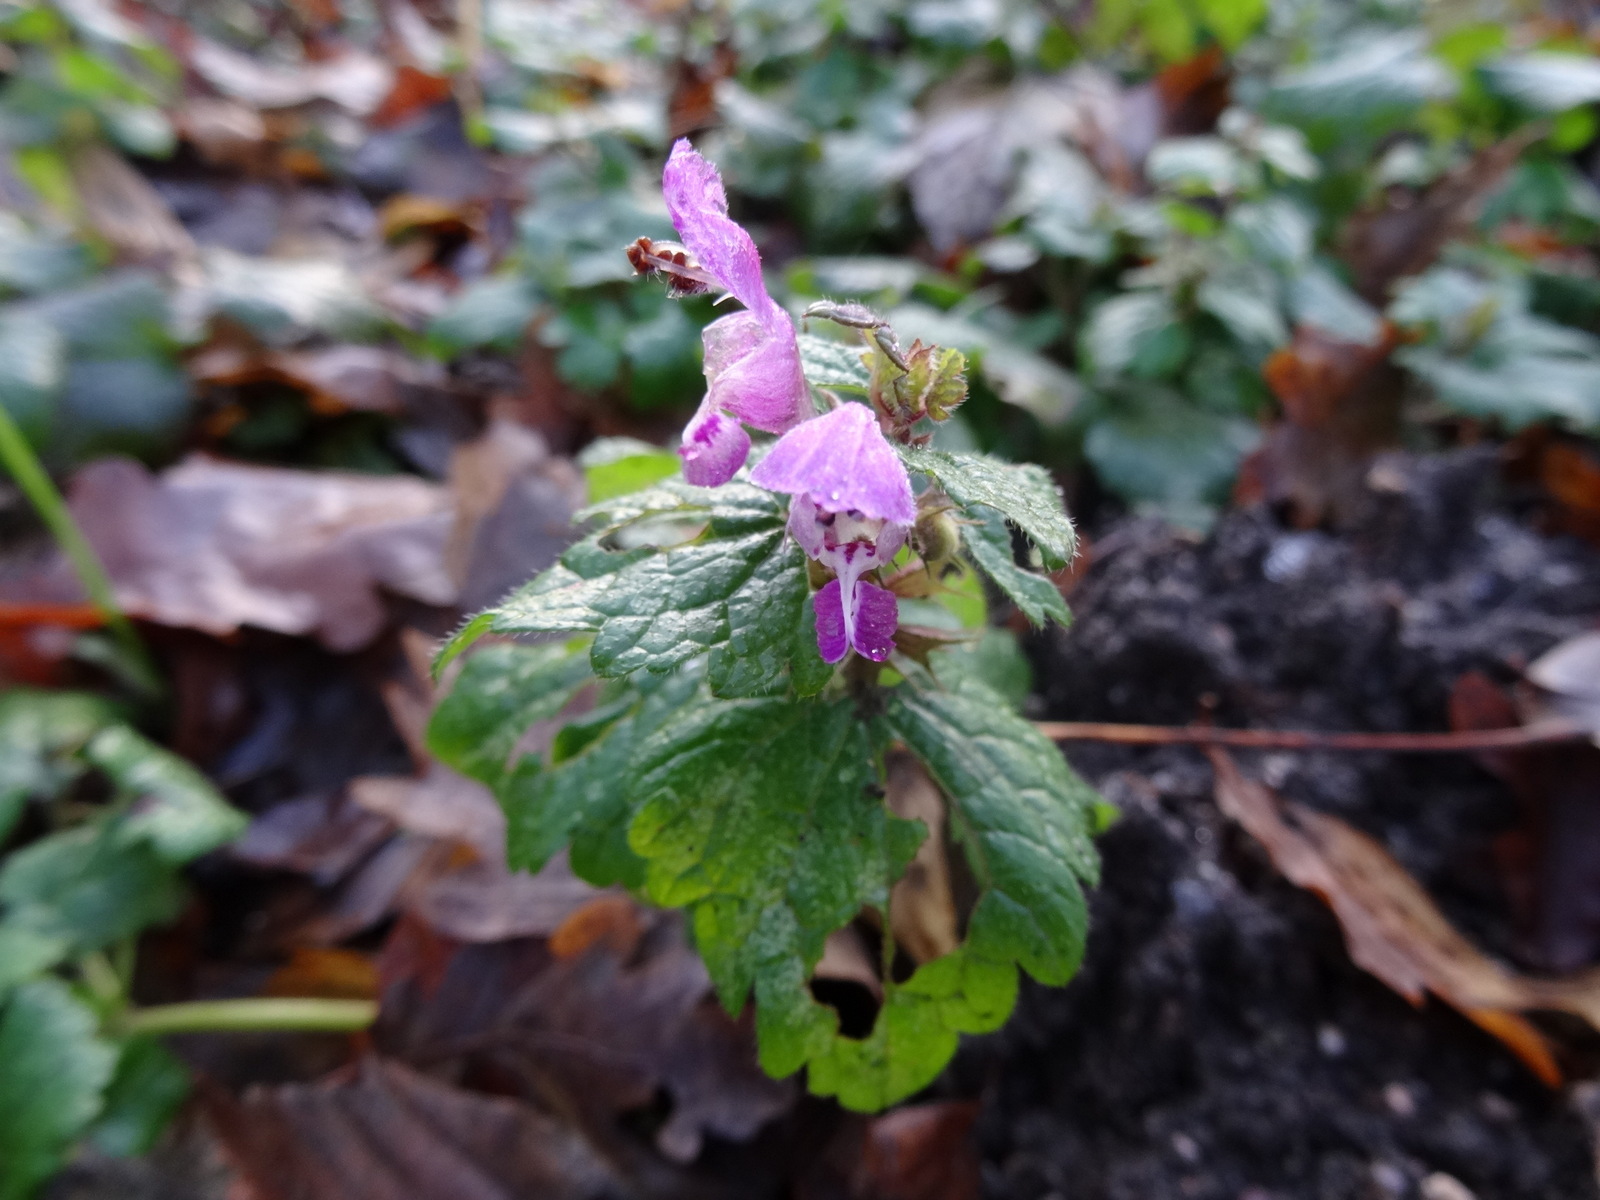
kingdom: Plantae
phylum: Tracheophyta
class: Magnoliopsida
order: Lamiales
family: Lamiaceae
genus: Lamium
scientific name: Lamium amplexicaule
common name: Henbit dead-nettle
